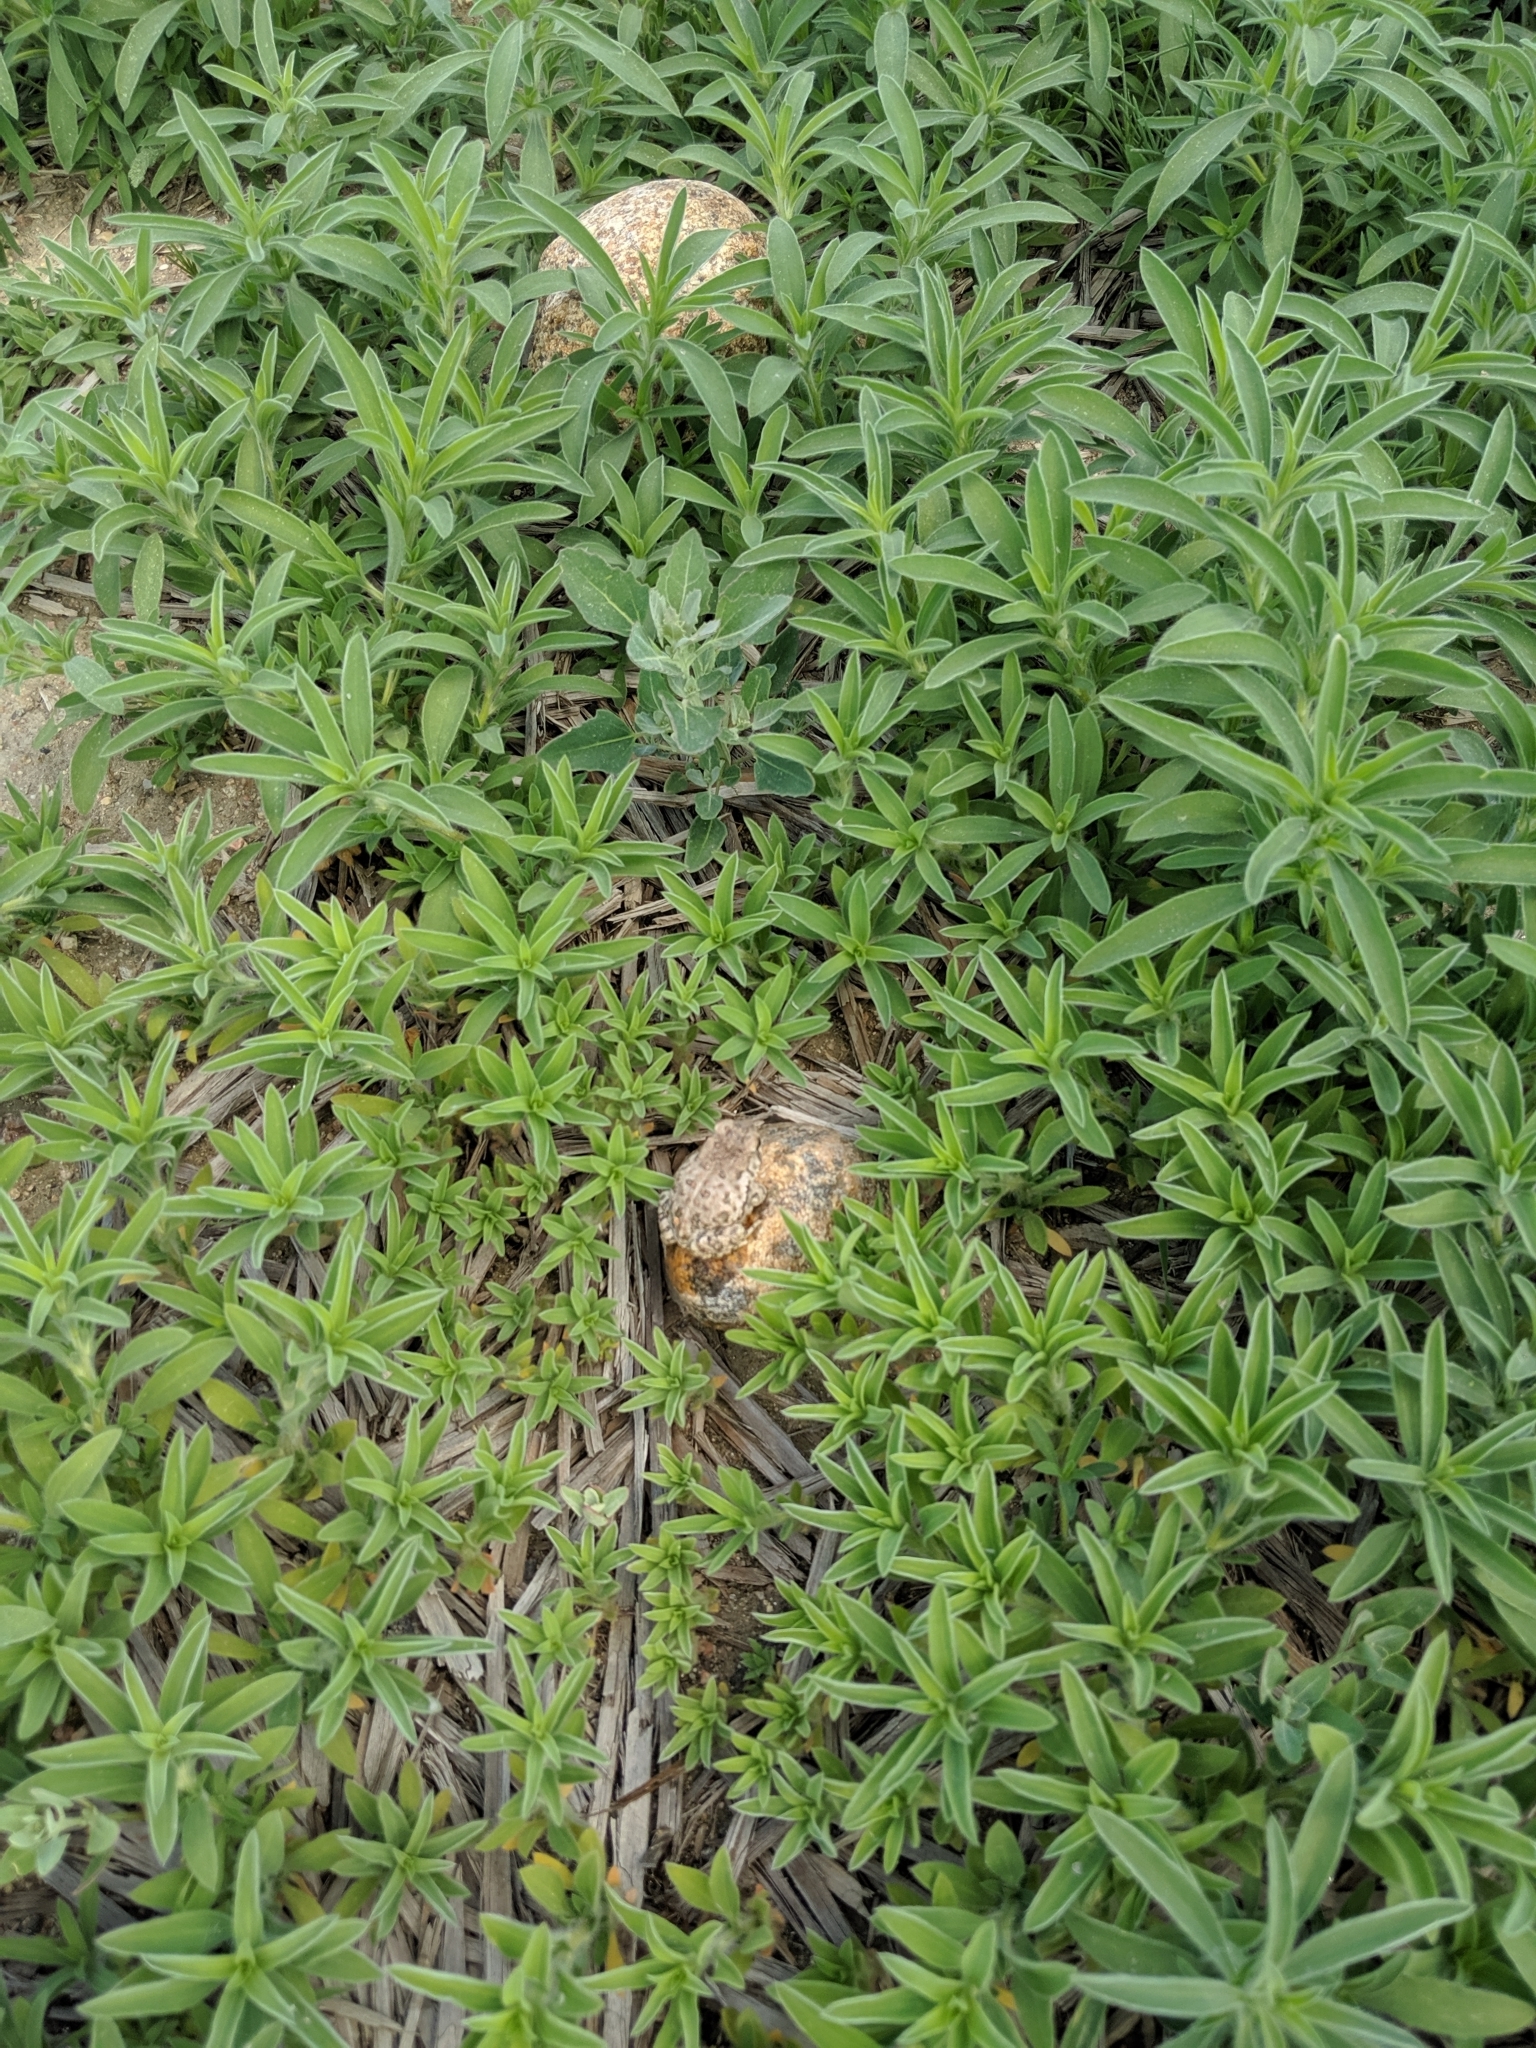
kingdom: Animalia
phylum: Chordata
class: Amphibia
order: Anura
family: Bufonidae
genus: Anaxyrus
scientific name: Anaxyrus woodhousii
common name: Woodhouse's toad
